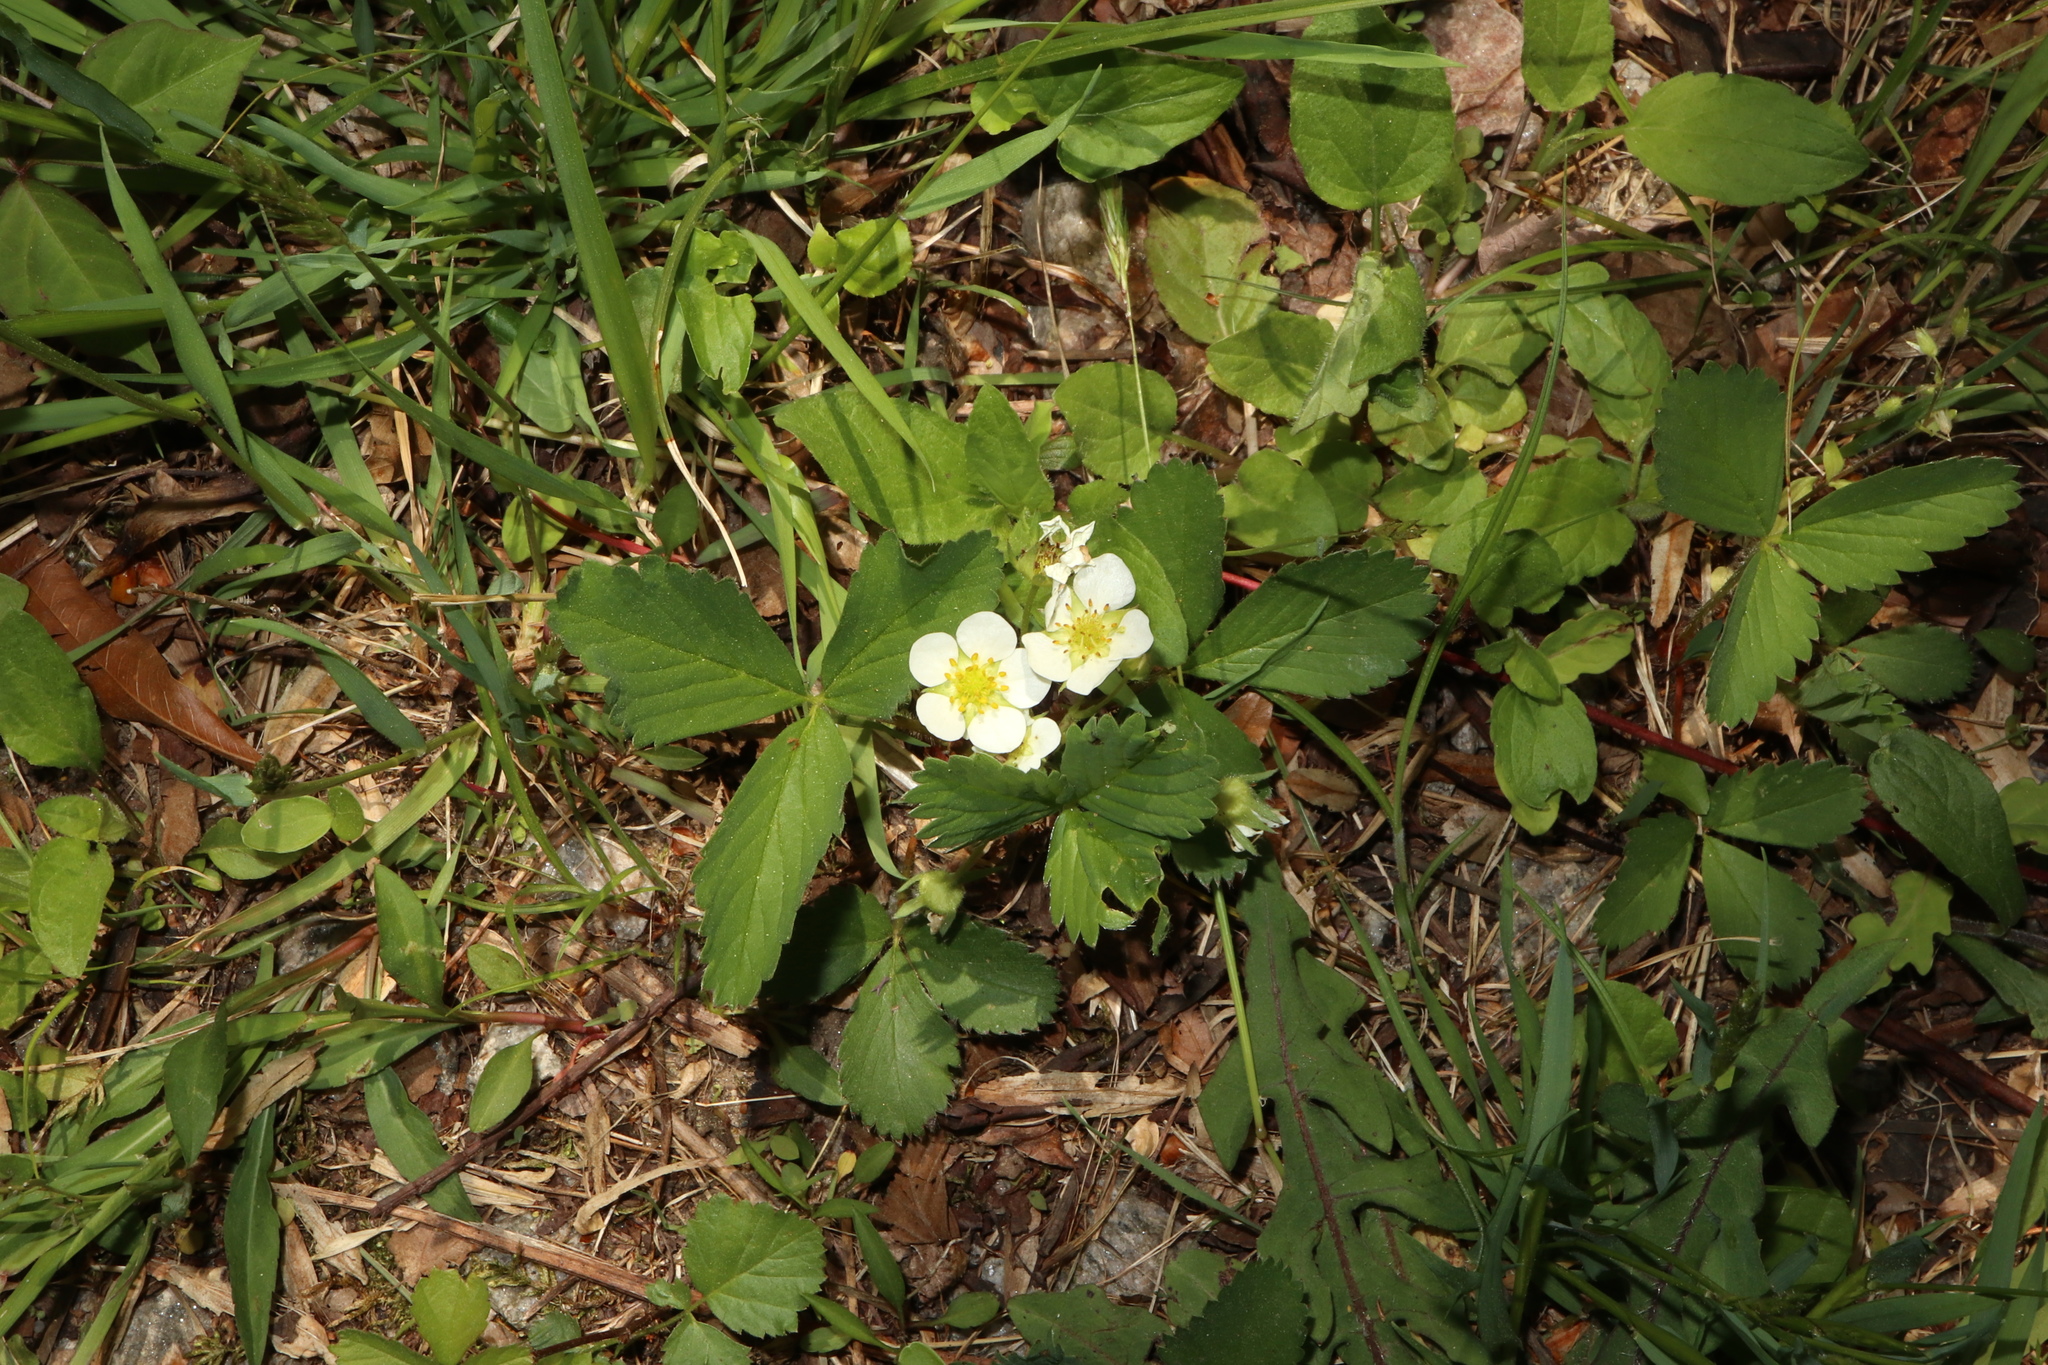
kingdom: Plantae
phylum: Tracheophyta
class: Magnoliopsida
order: Rosales
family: Rosaceae
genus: Fragaria
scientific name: Fragaria virginiana
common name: Thickleaved wild strawberry
